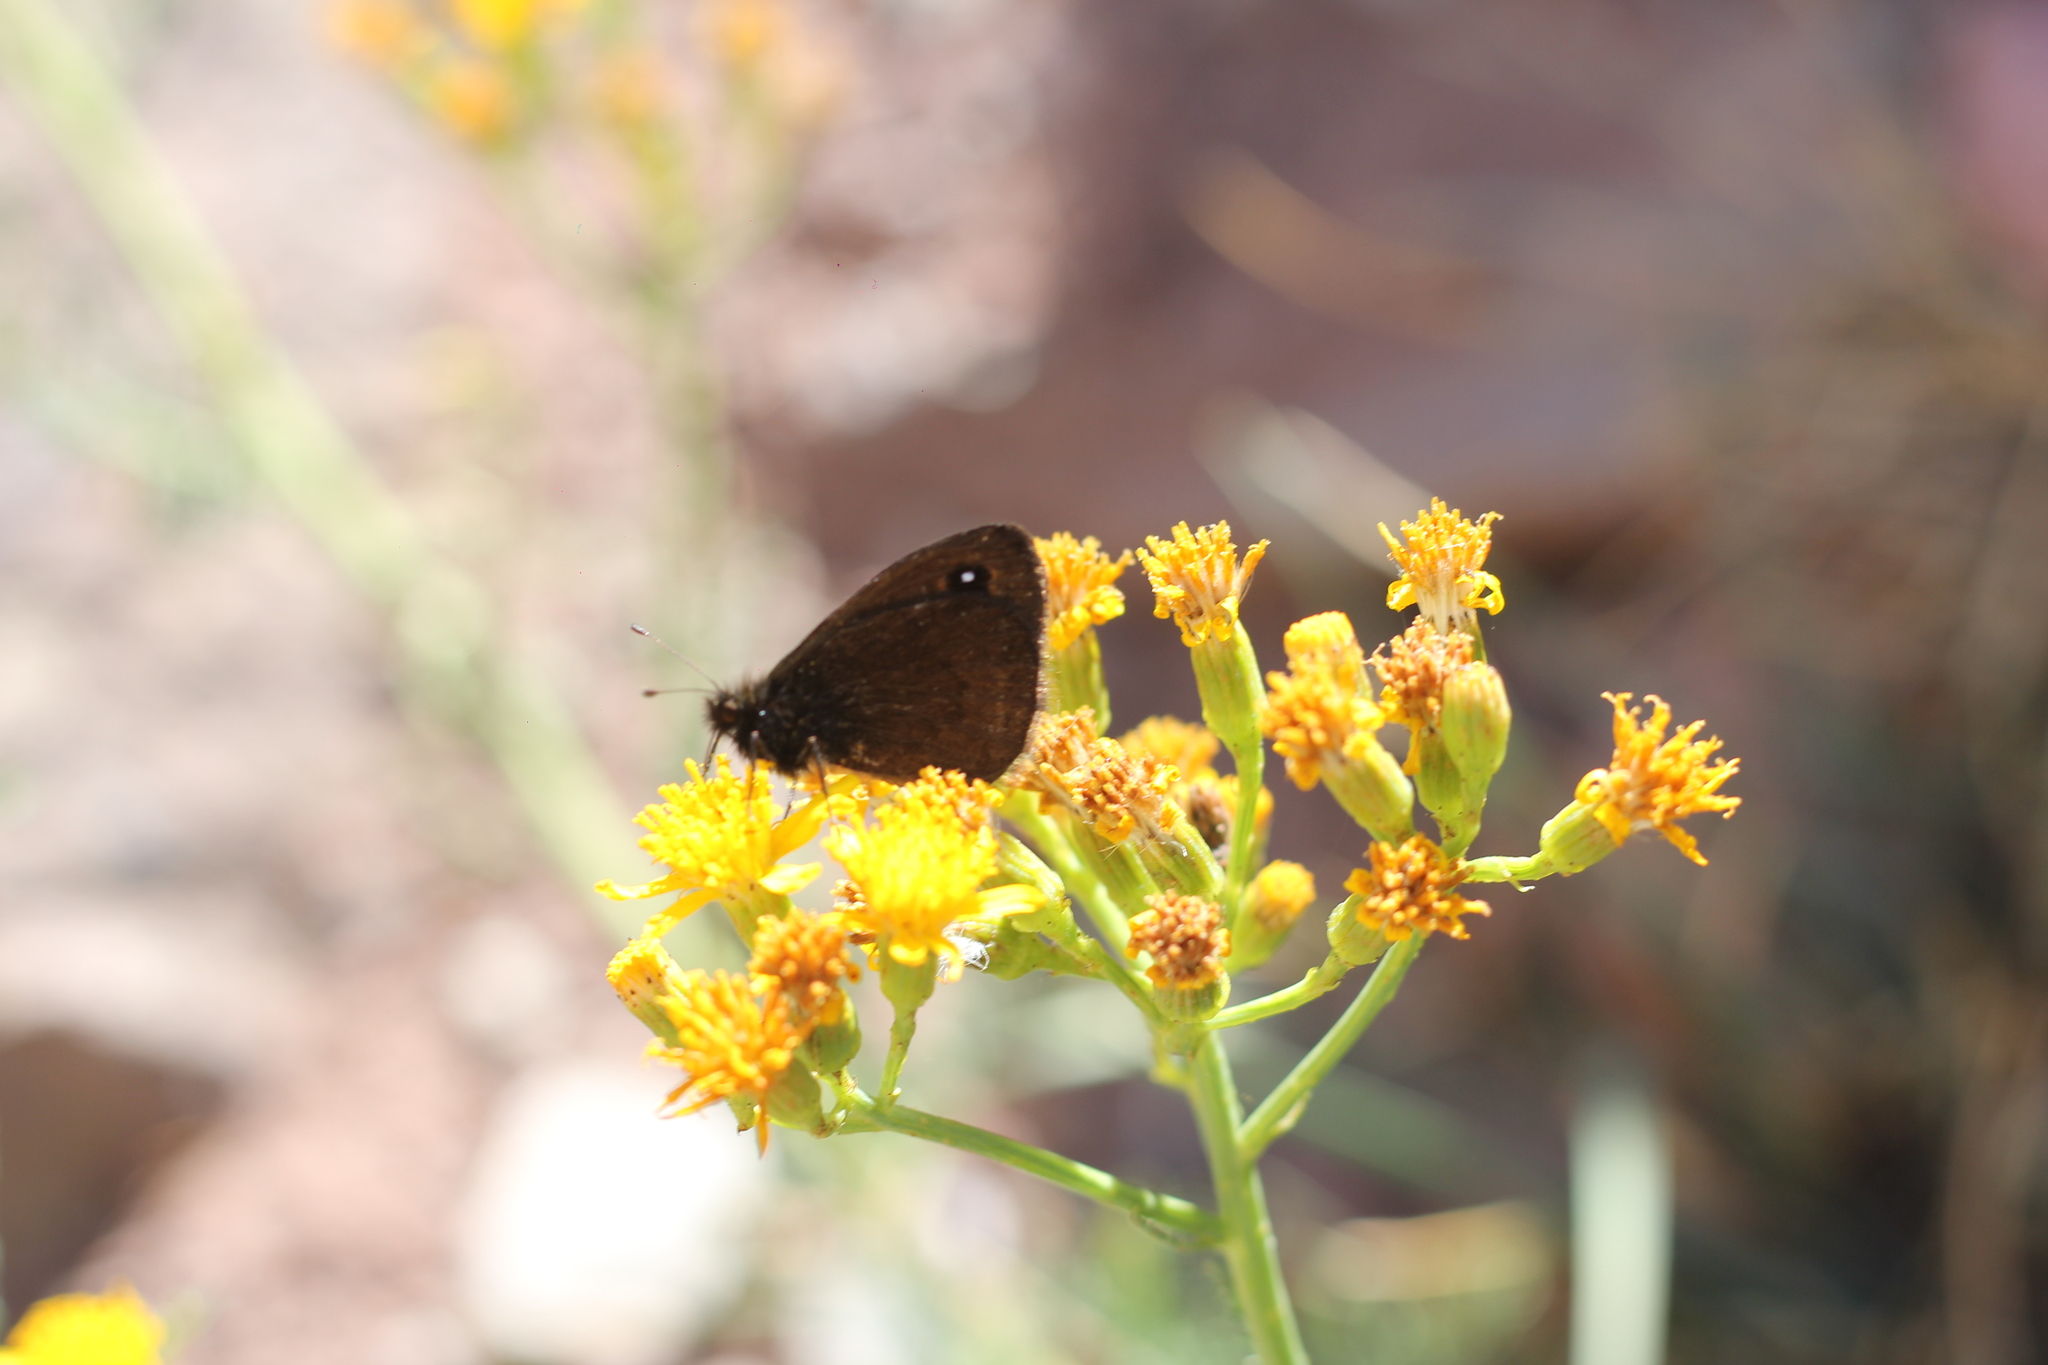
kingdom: Animalia
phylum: Arthropoda
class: Insecta
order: Lepidoptera
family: Nymphalidae
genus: Faunula
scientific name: Faunula leucoglene
